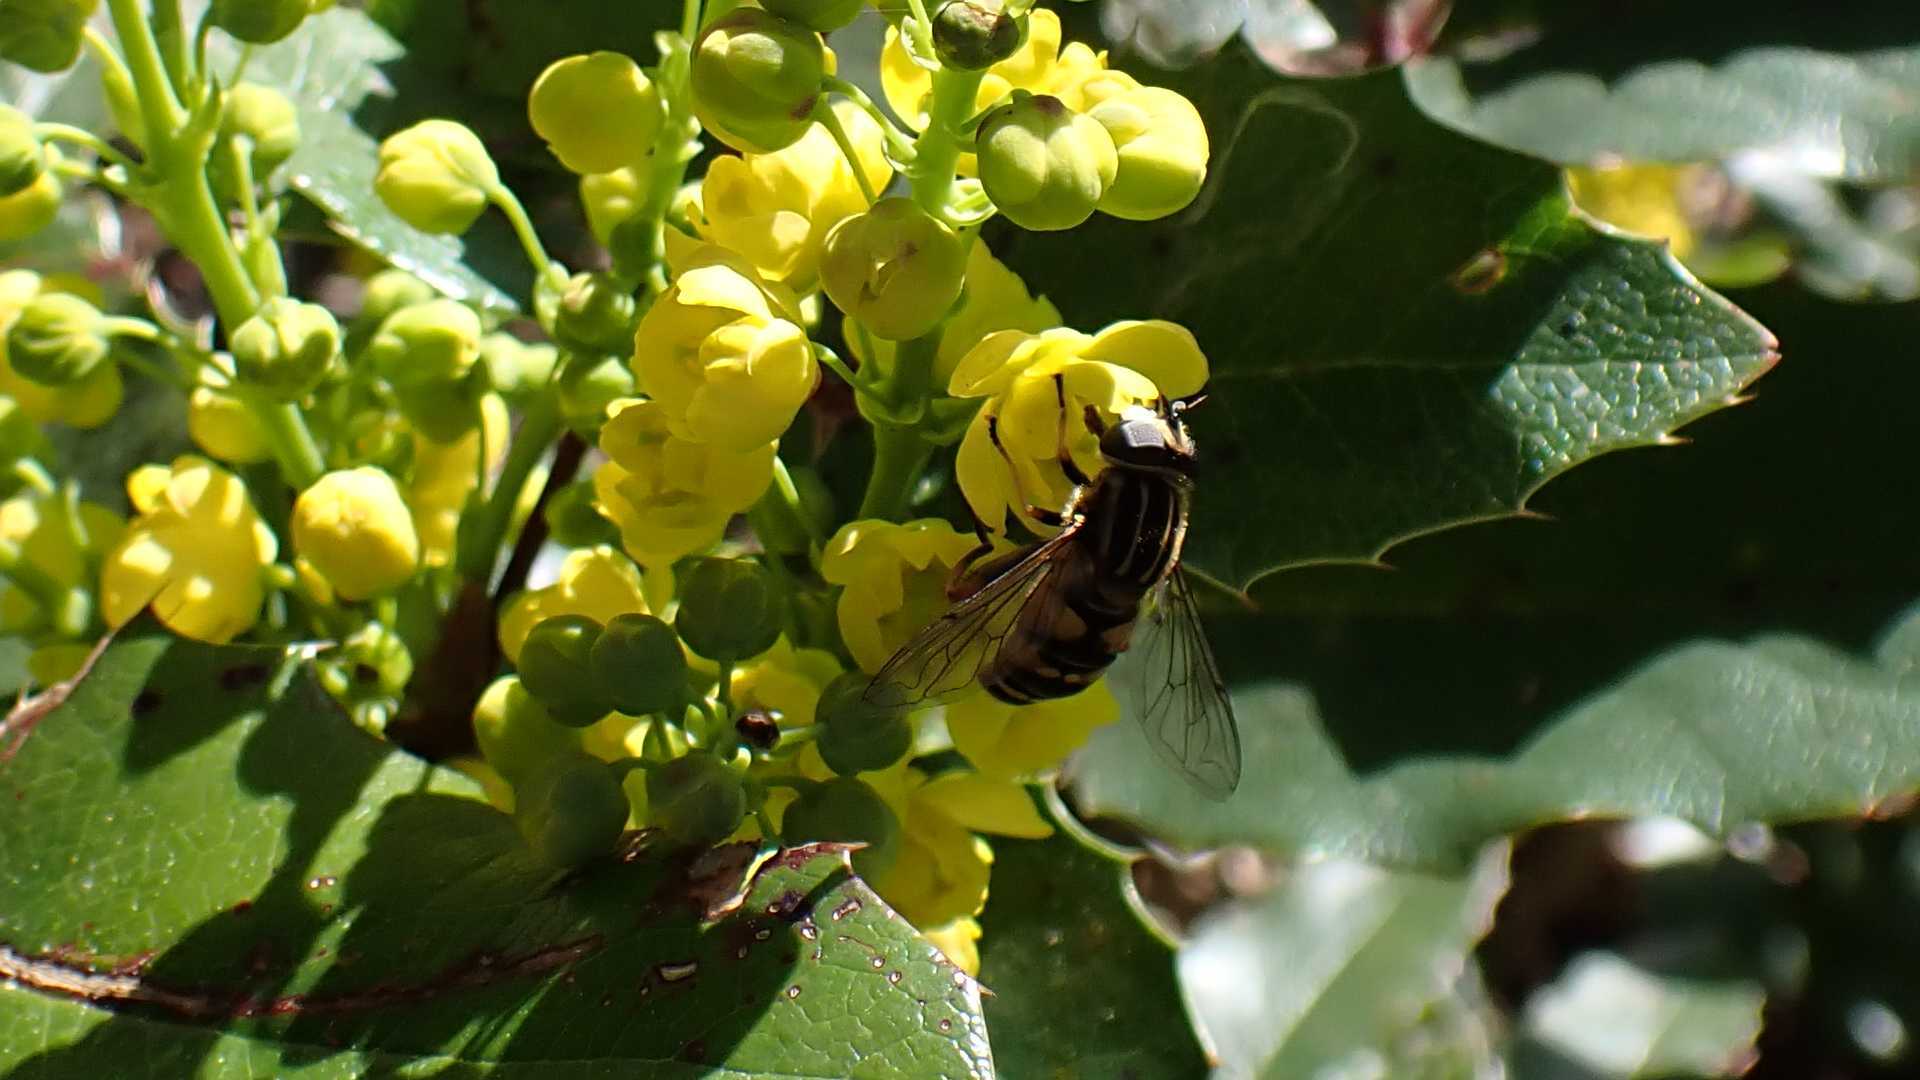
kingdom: Animalia
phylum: Arthropoda
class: Insecta
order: Diptera
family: Syrphidae
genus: Helophilus
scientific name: Helophilus pendulus
